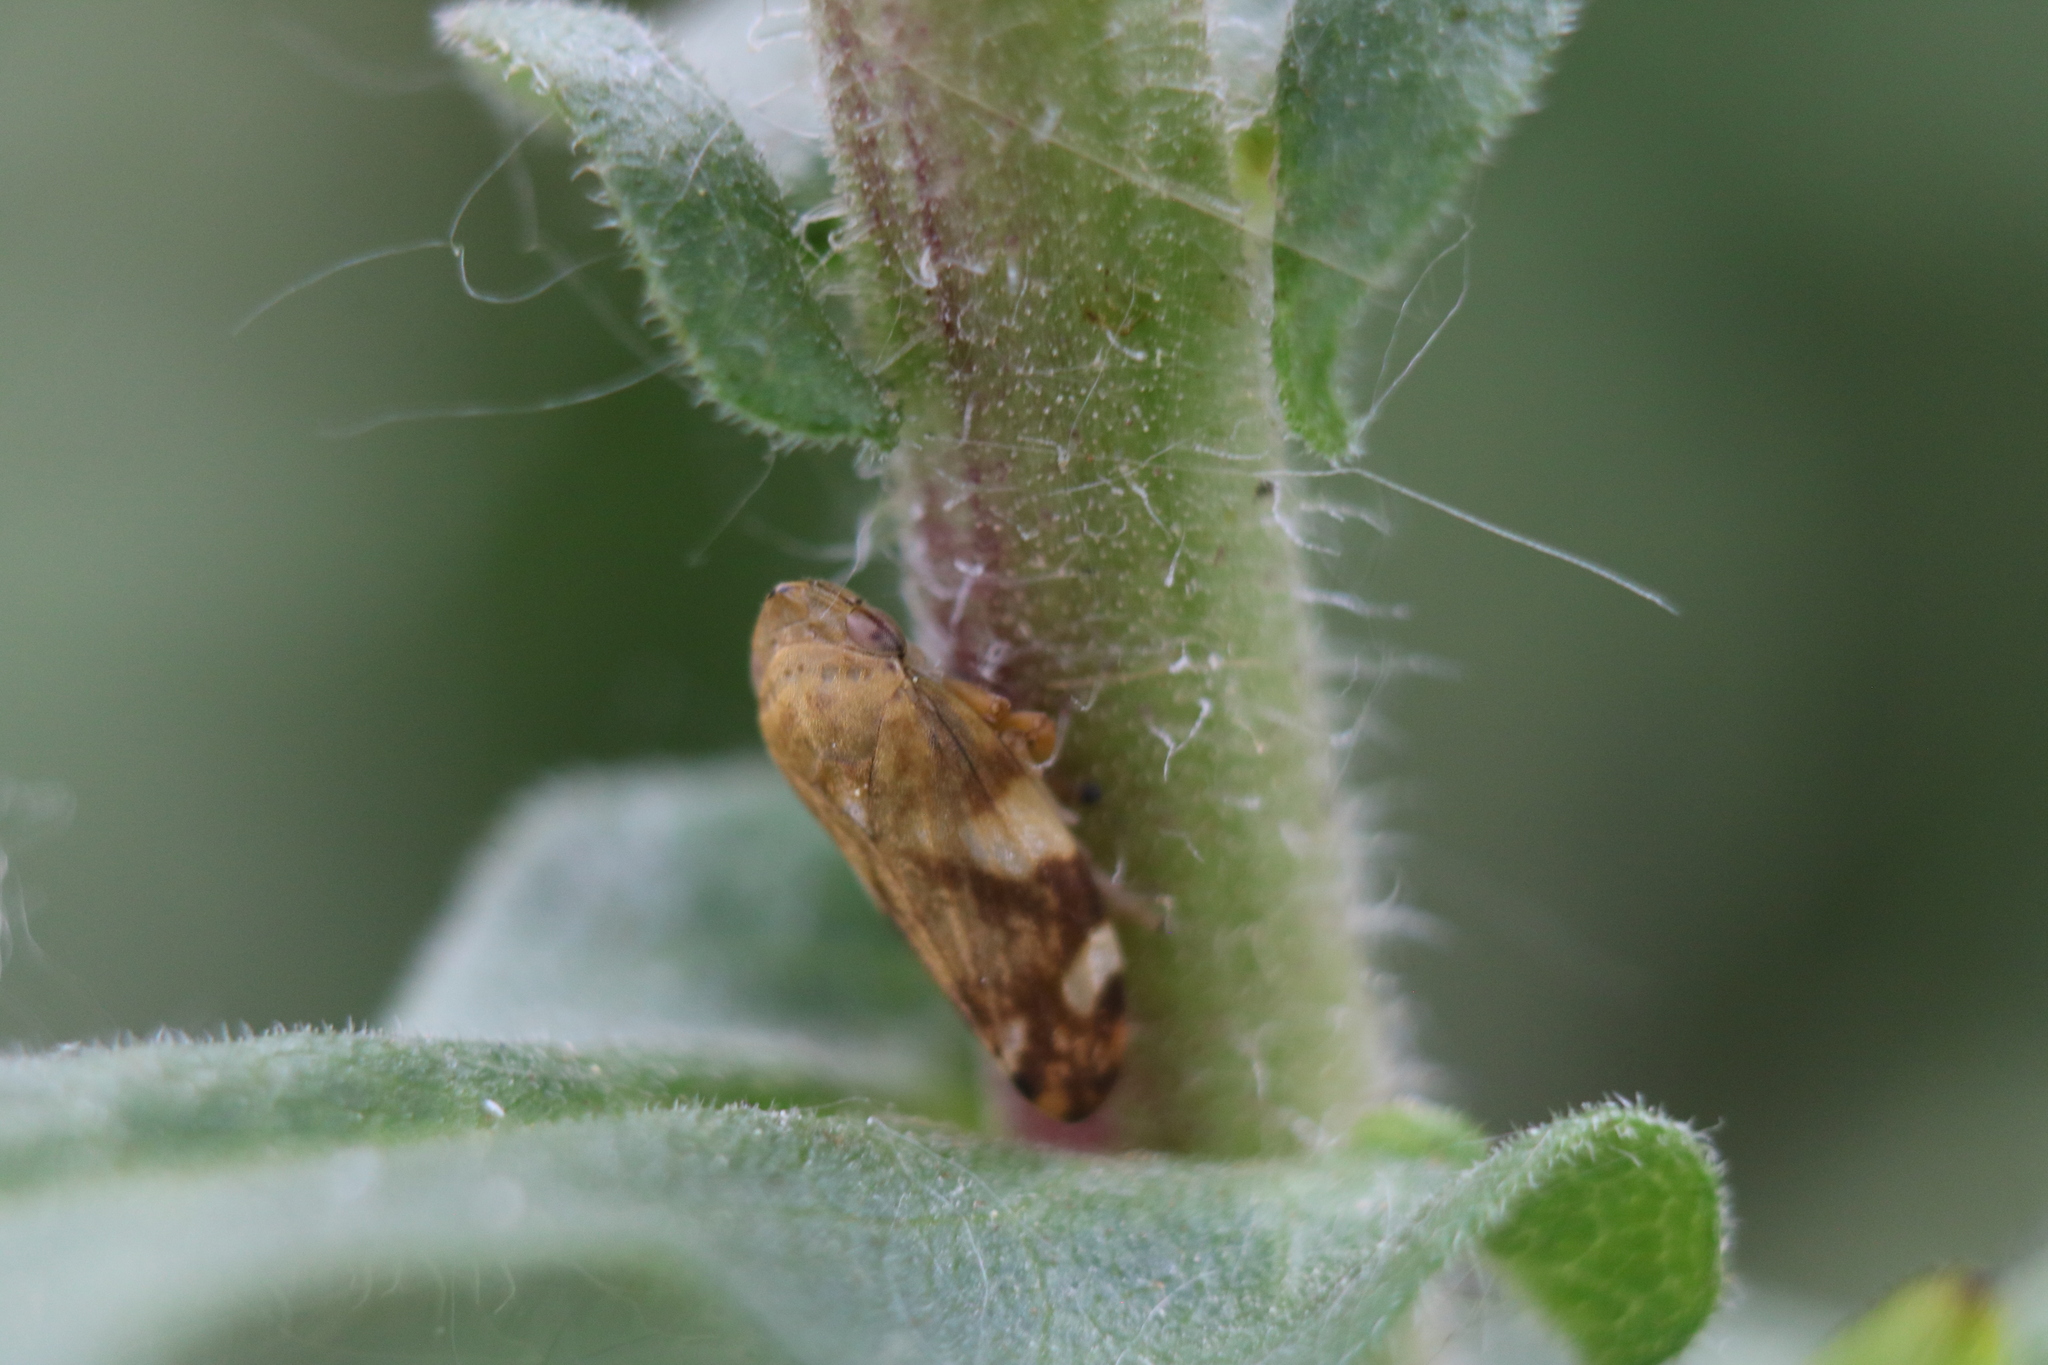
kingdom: Animalia
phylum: Arthropoda
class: Insecta
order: Hemiptera
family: Aphrophoridae
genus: Philaenus
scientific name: Philaenus spumarius
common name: Meadow spittlebug
